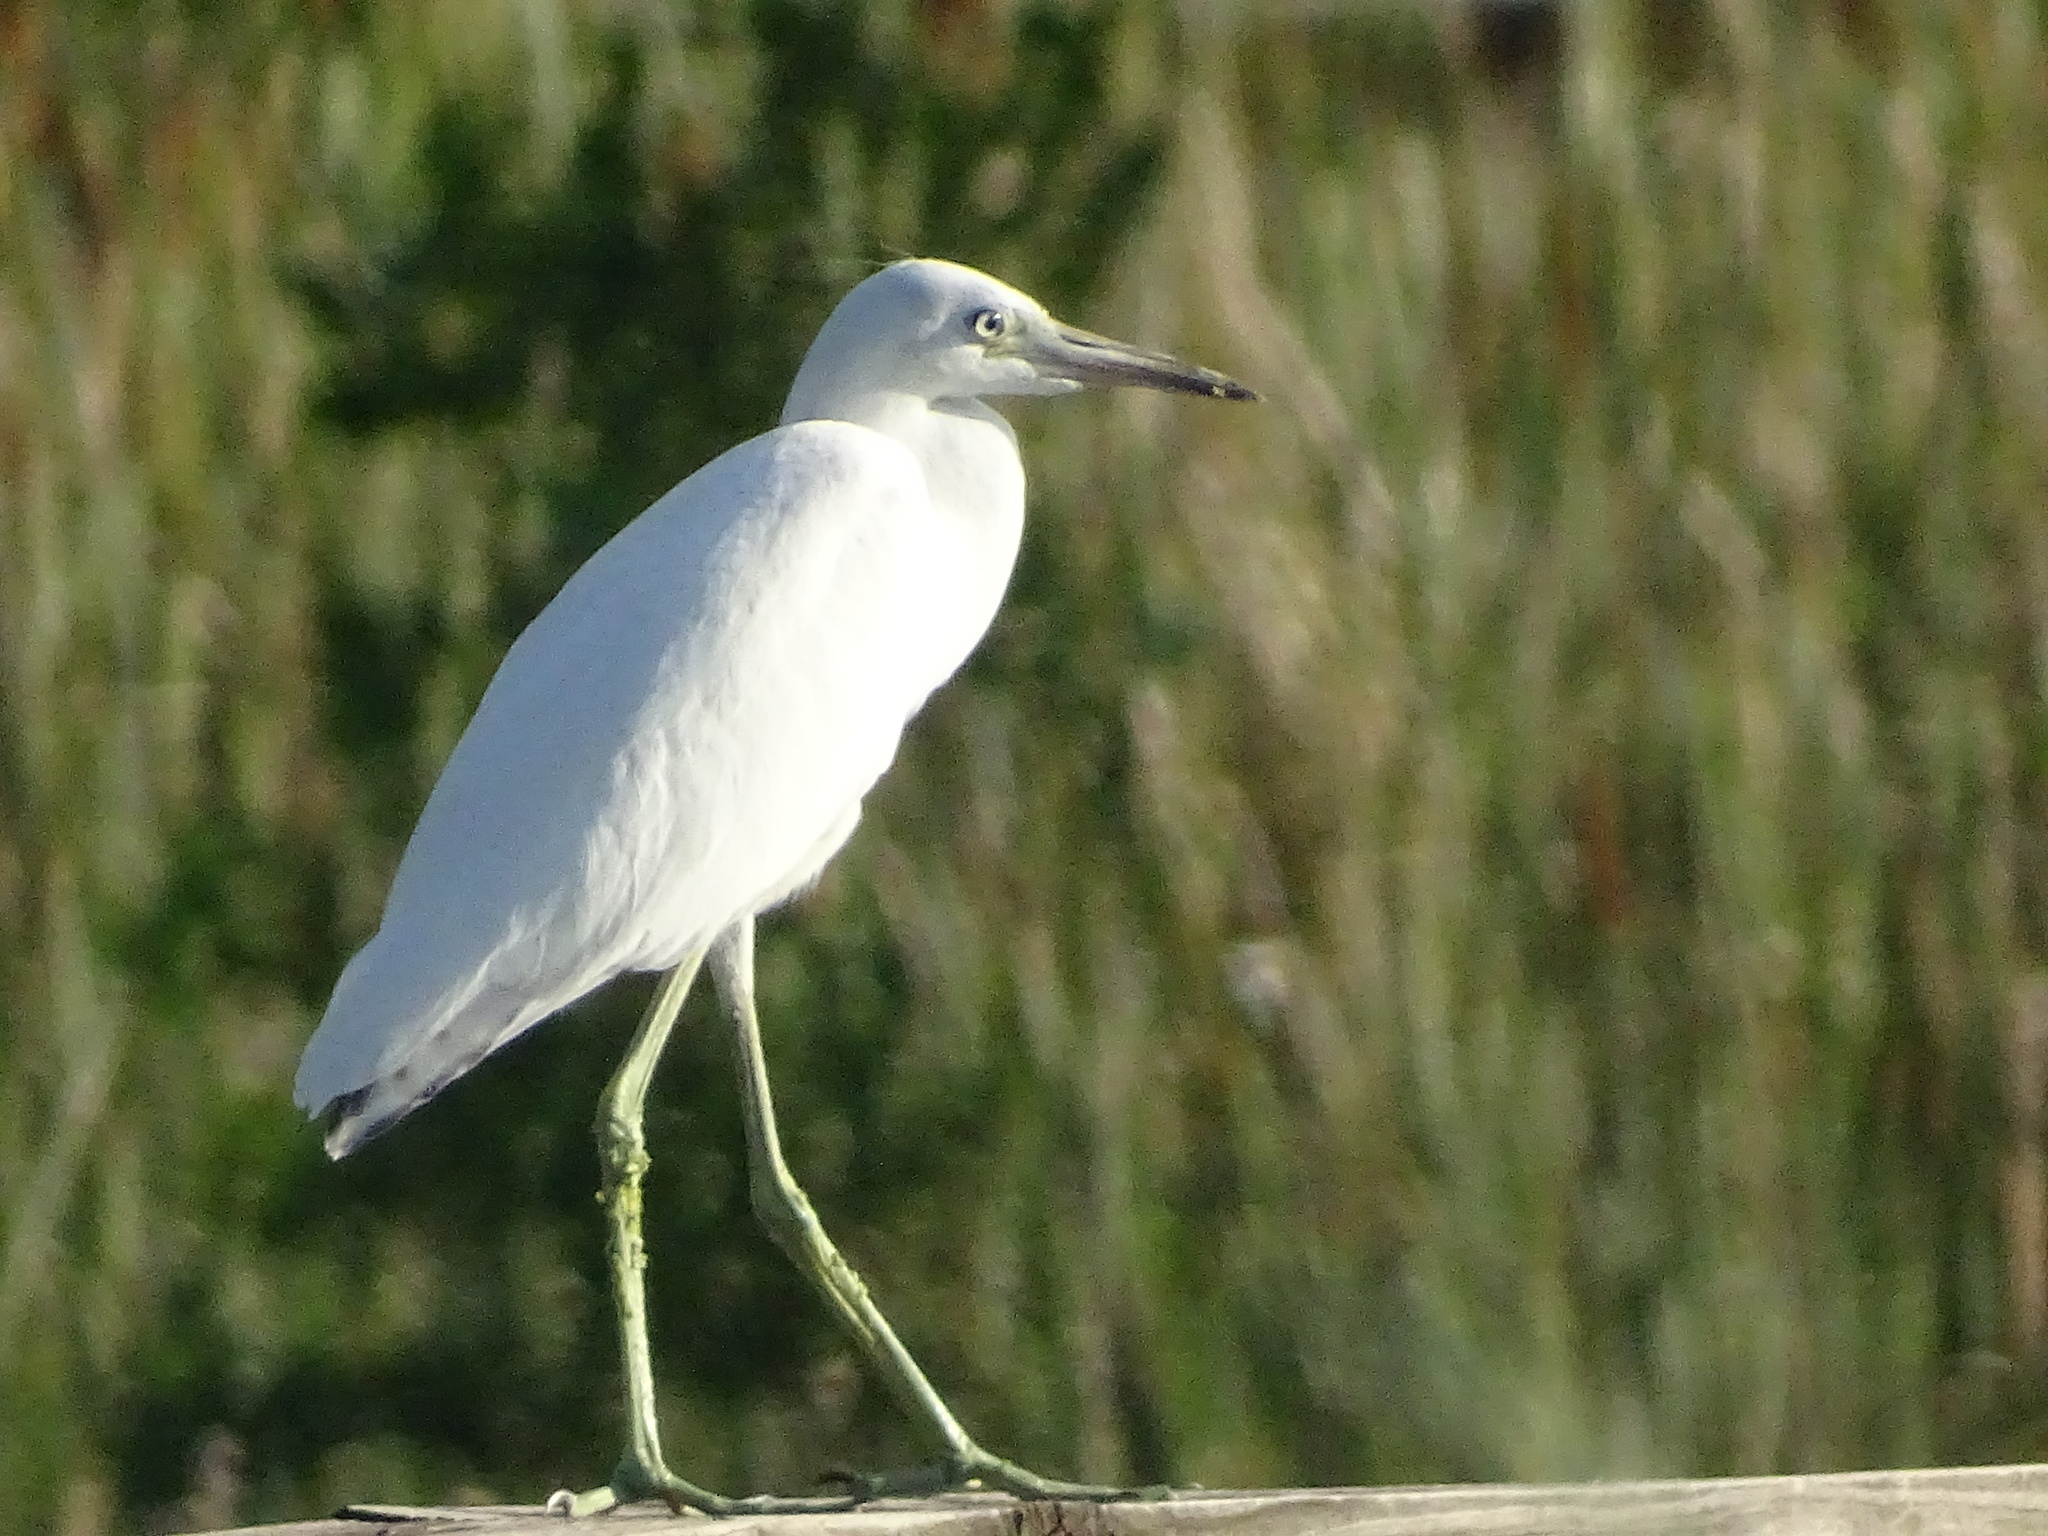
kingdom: Animalia
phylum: Chordata
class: Aves
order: Pelecaniformes
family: Ardeidae
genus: Egretta
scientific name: Egretta caerulea
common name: Little blue heron
